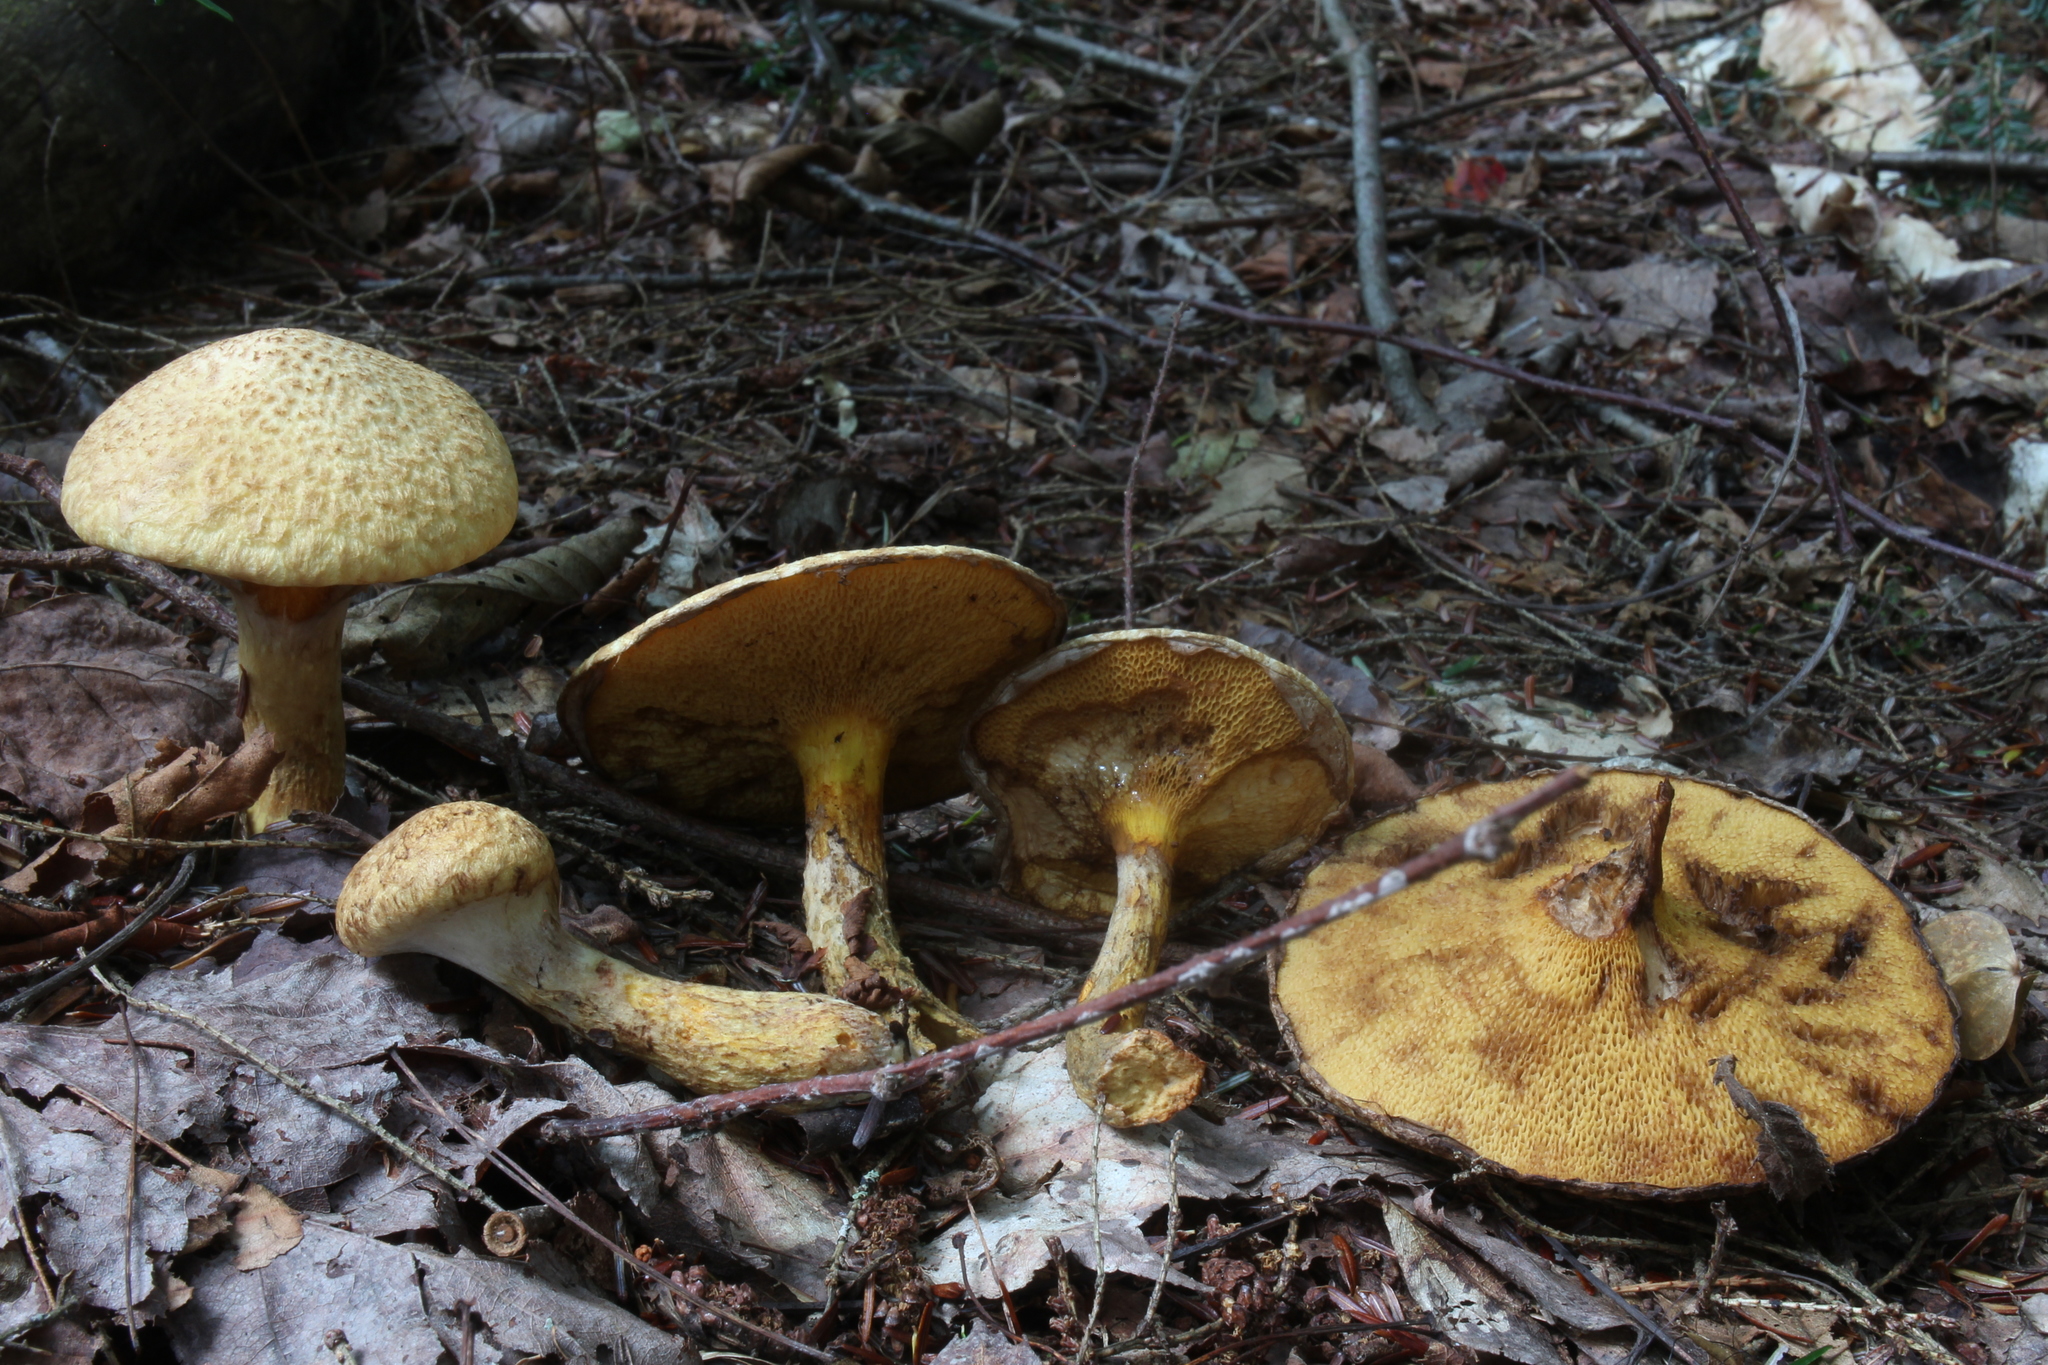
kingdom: Fungi
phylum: Basidiomycota
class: Agaricomycetes
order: Boletales
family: Suillaceae
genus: Suillus
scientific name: Suillus spraguei
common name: Painted suillus
